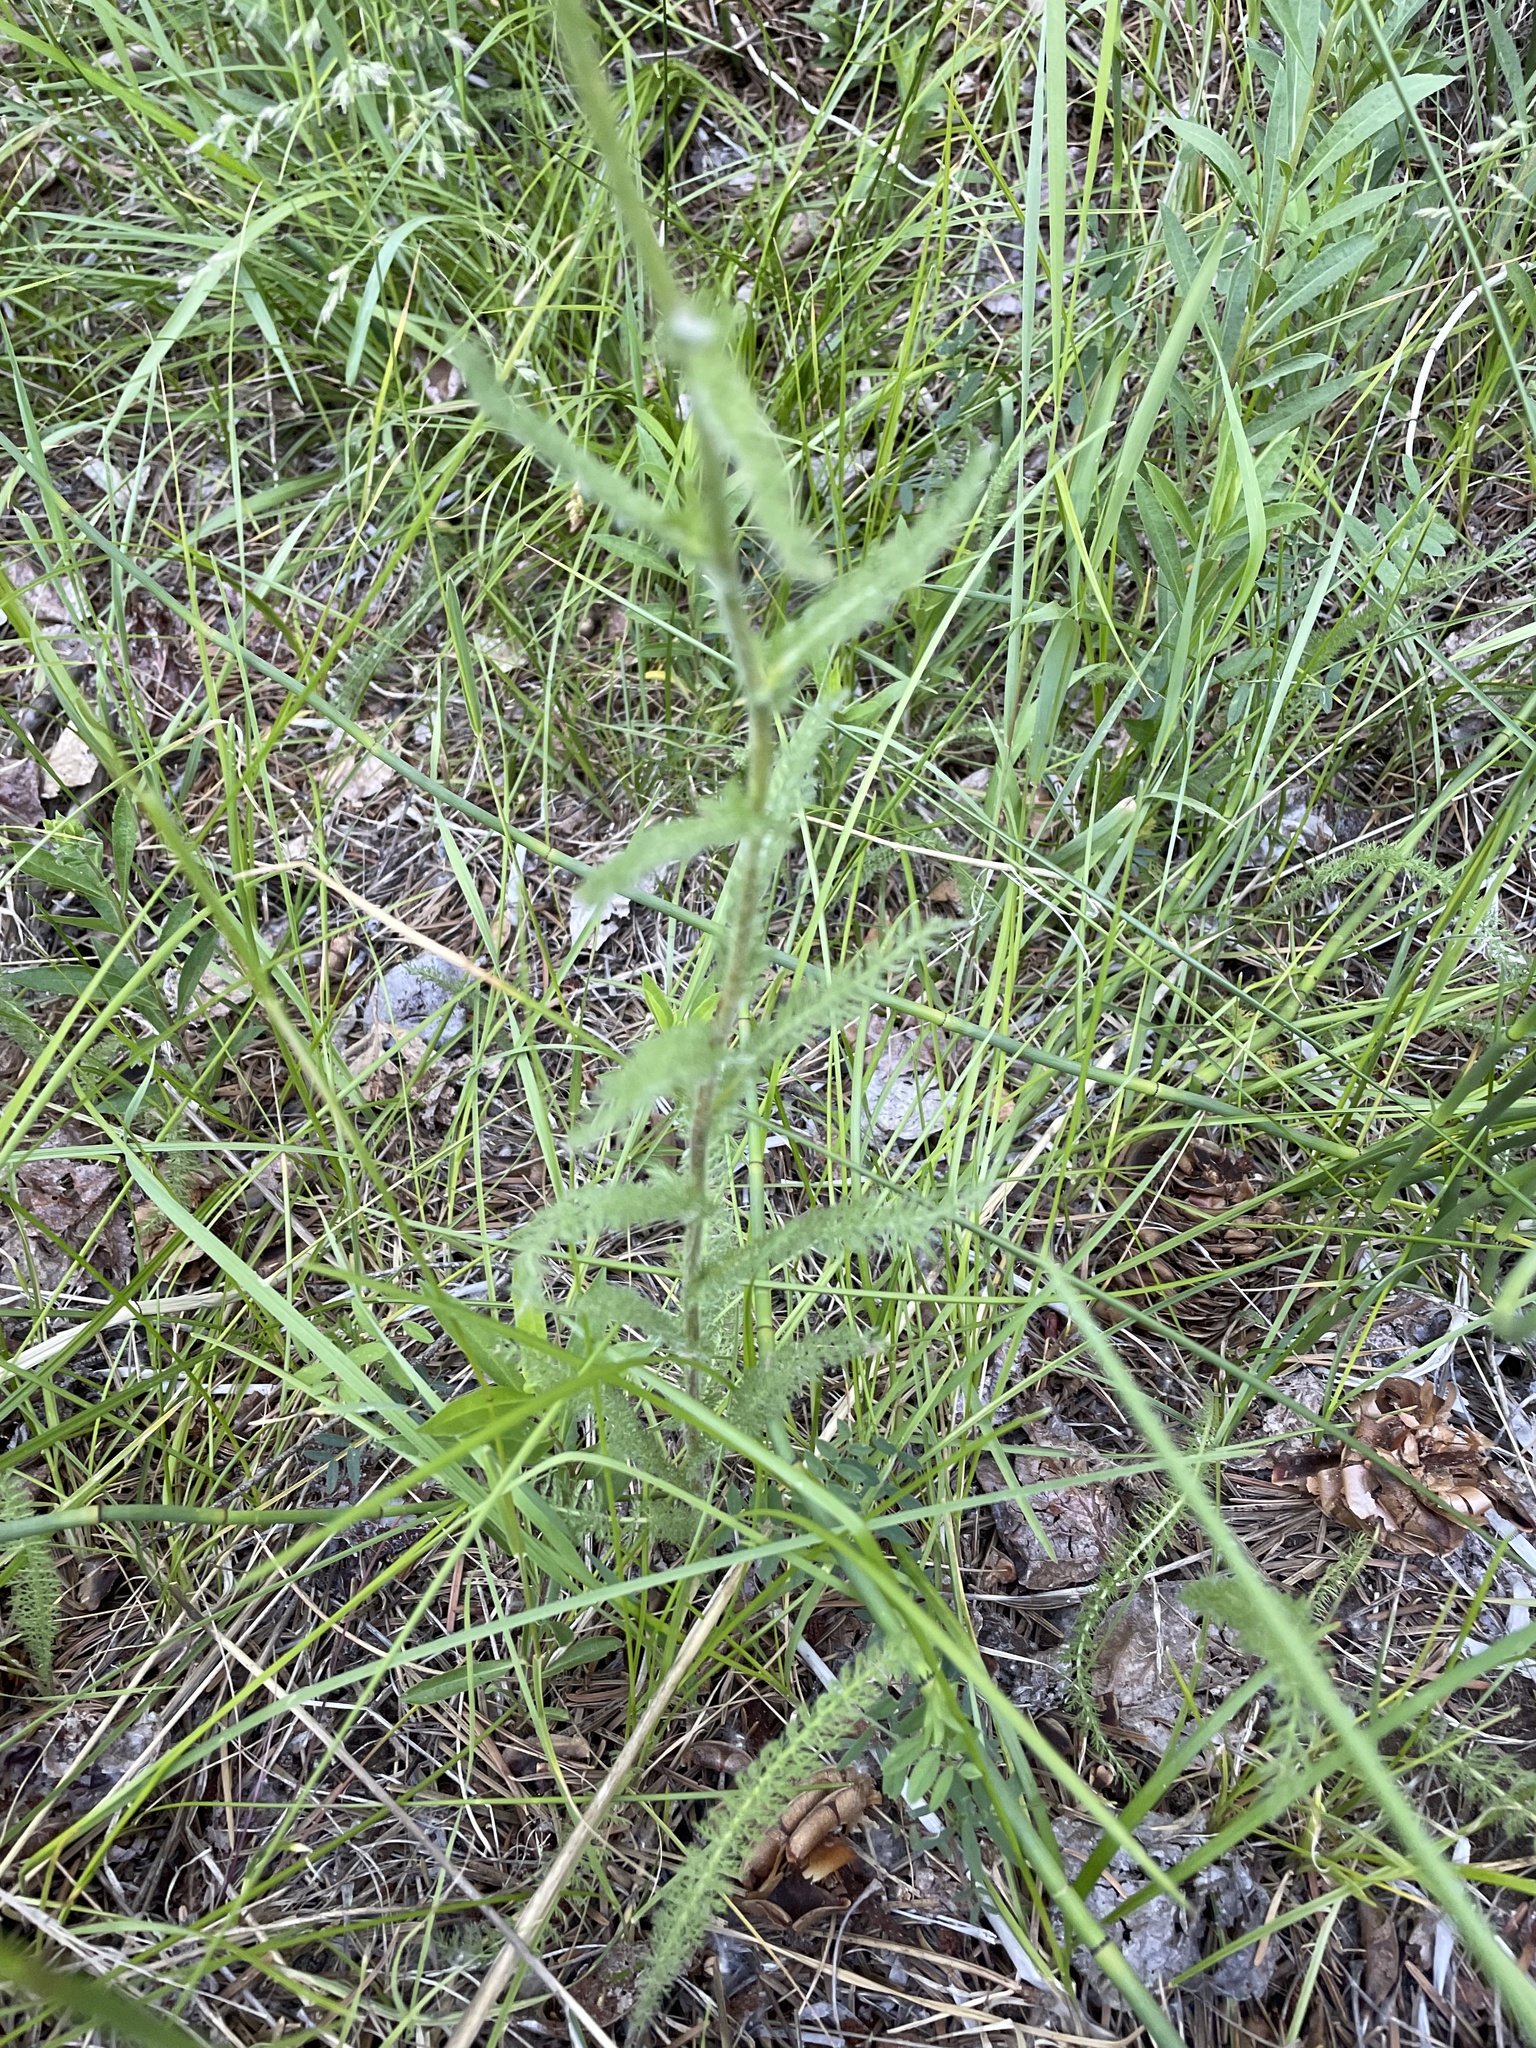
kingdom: Plantae
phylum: Tracheophyta
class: Magnoliopsida
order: Asterales
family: Asteraceae
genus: Achillea
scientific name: Achillea millefolium
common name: Yarrow
